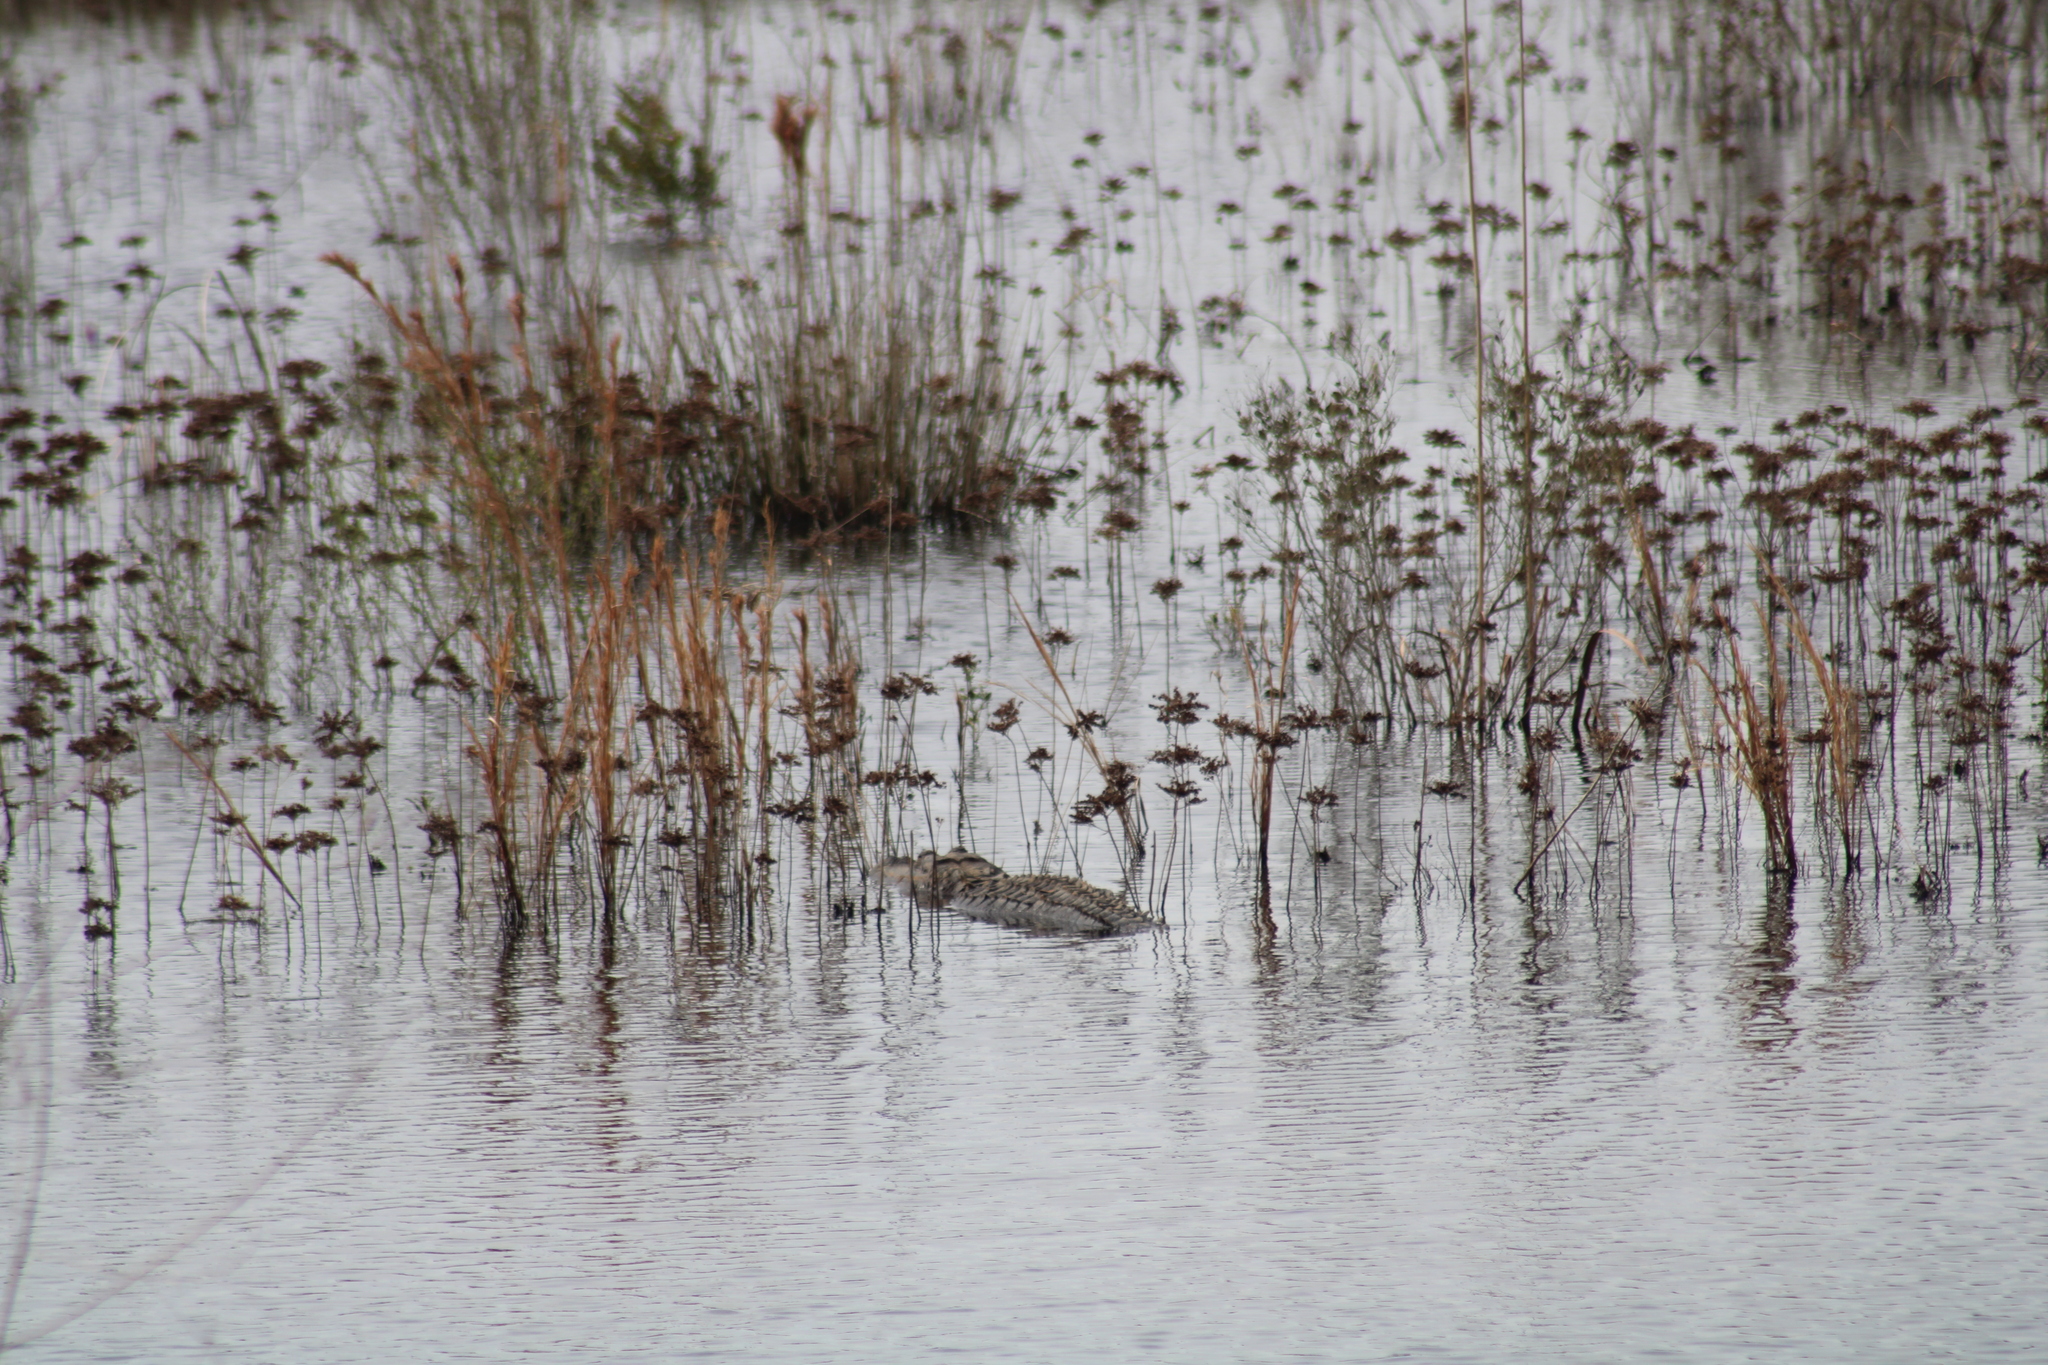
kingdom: Animalia
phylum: Chordata
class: Crocodylia
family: Alligatoridae
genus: Alligator
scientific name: Alligator mississippiensis
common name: American alligator
